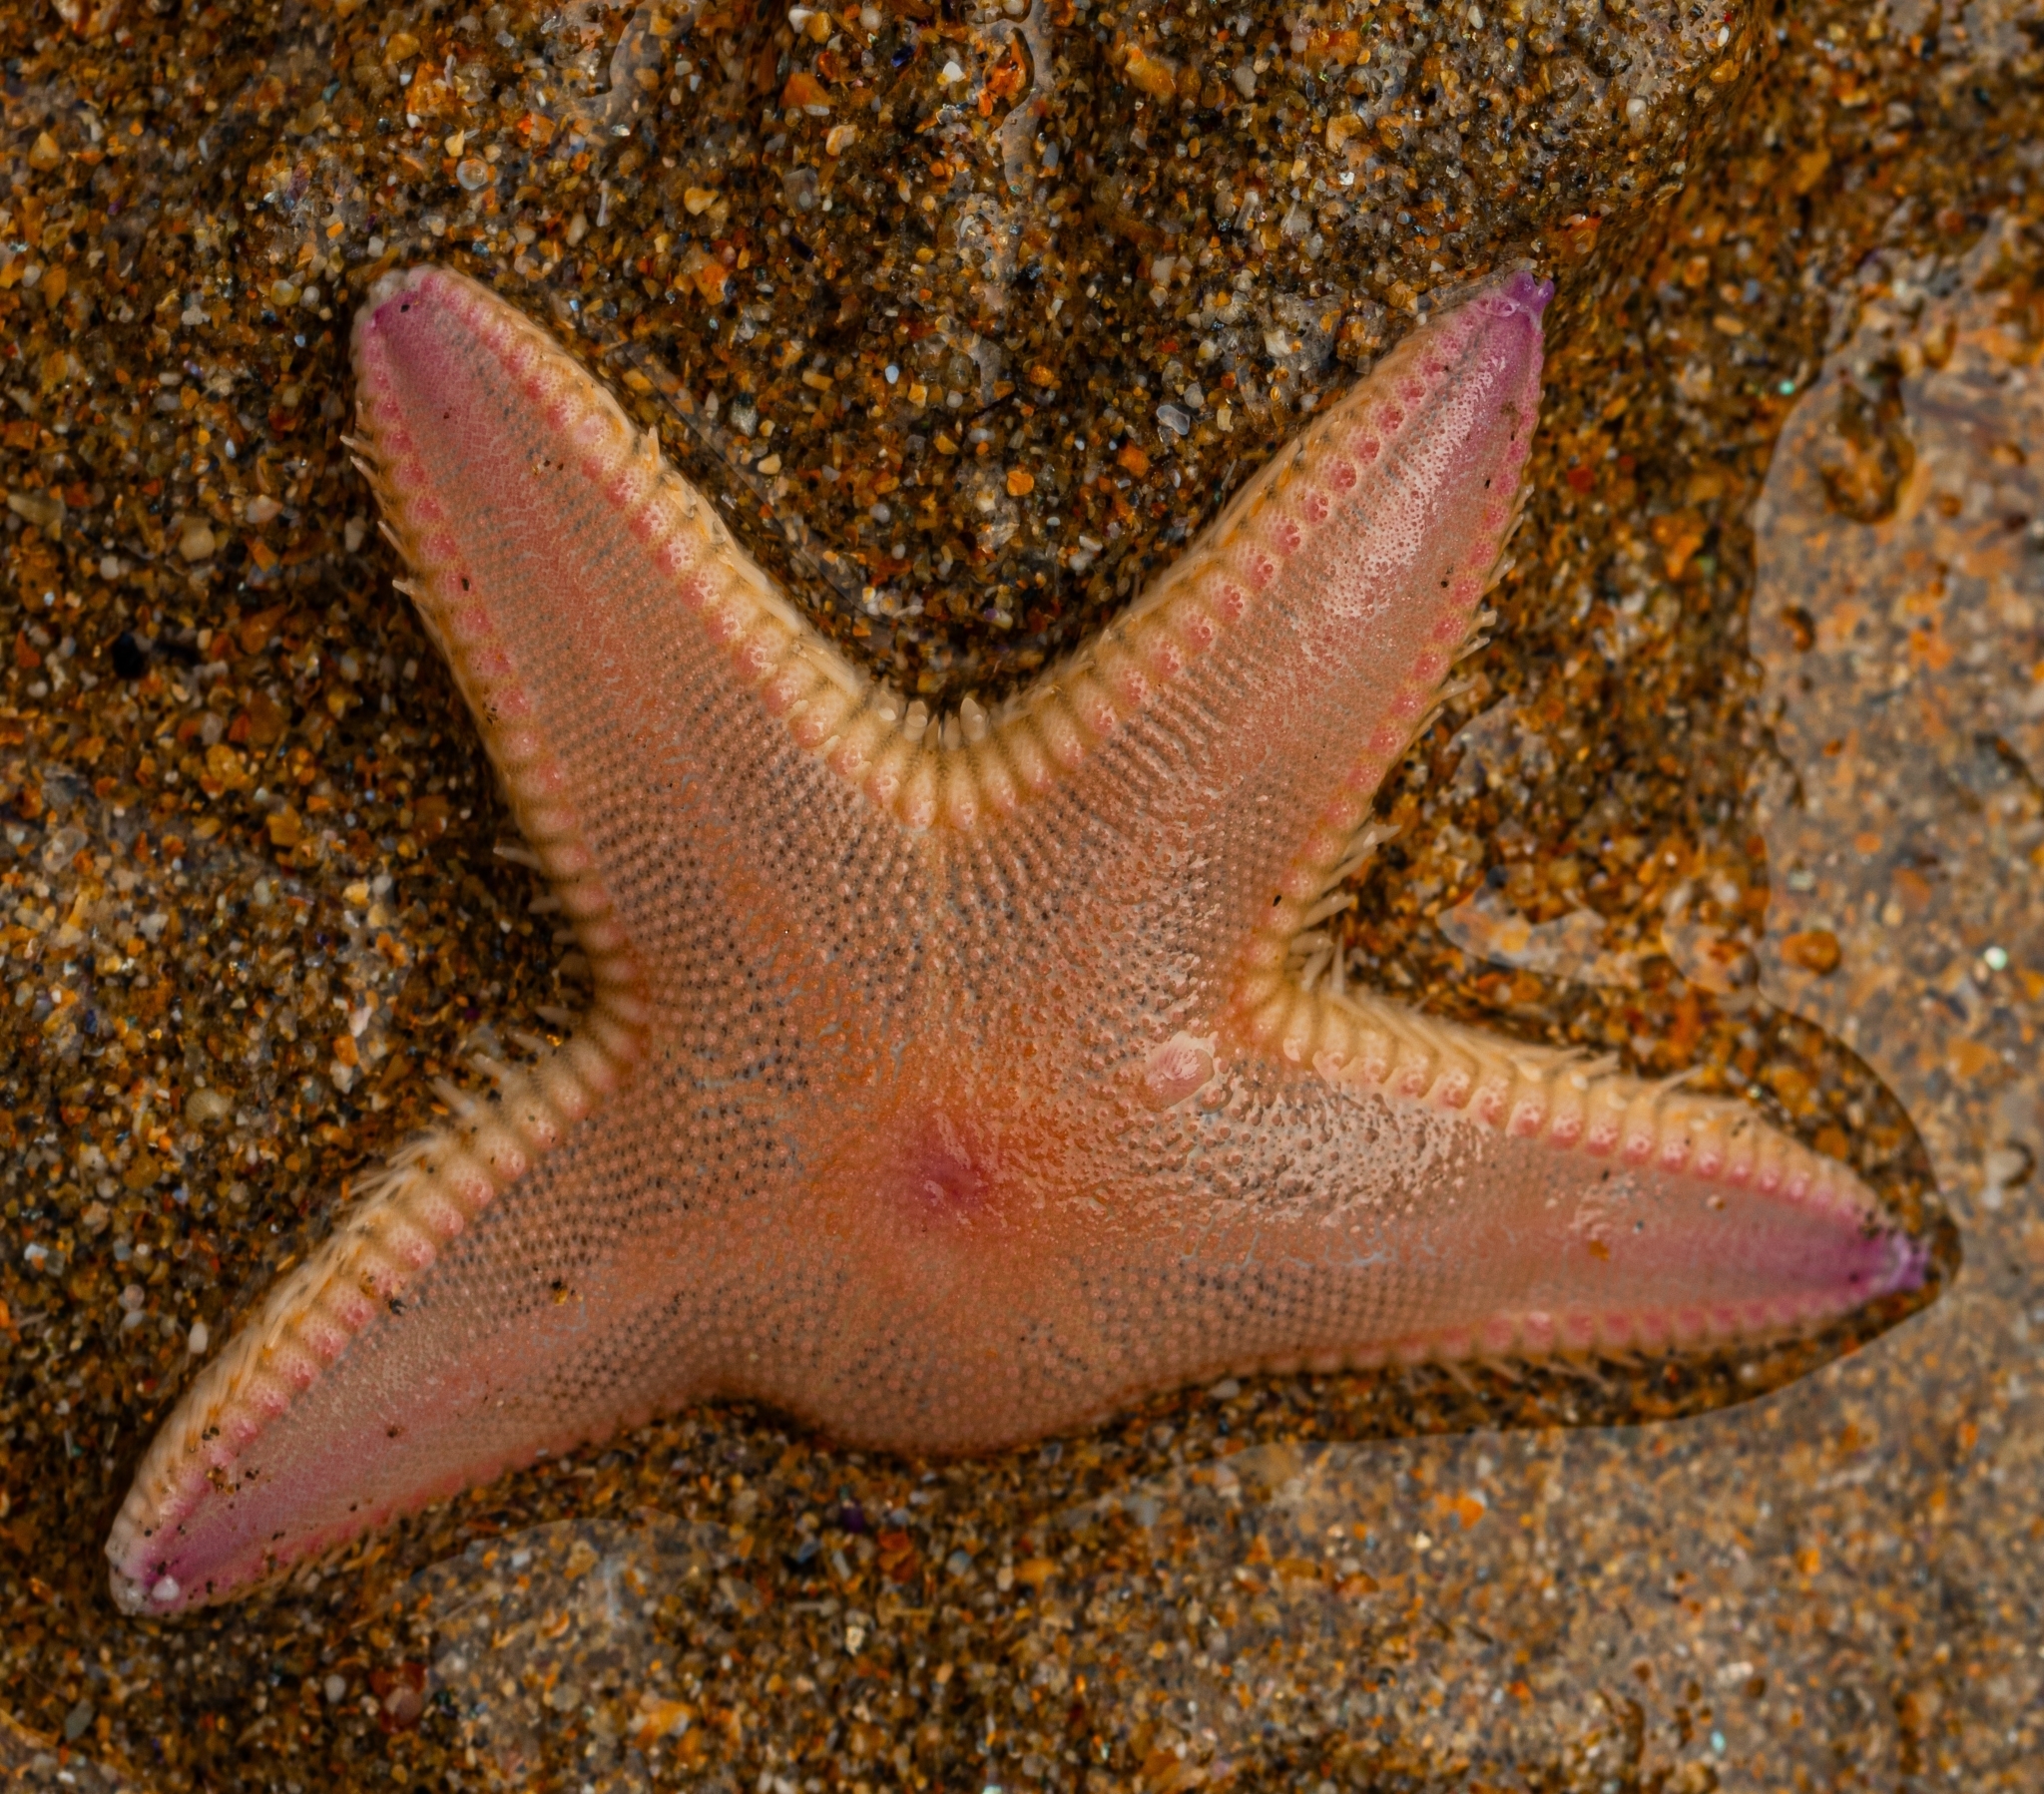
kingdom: Animalia
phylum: Echinodermata
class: Asteroidea
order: Paxillosida
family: Astropectinidae
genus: Astropecten
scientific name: Astropecten irregularis
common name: Sand star
